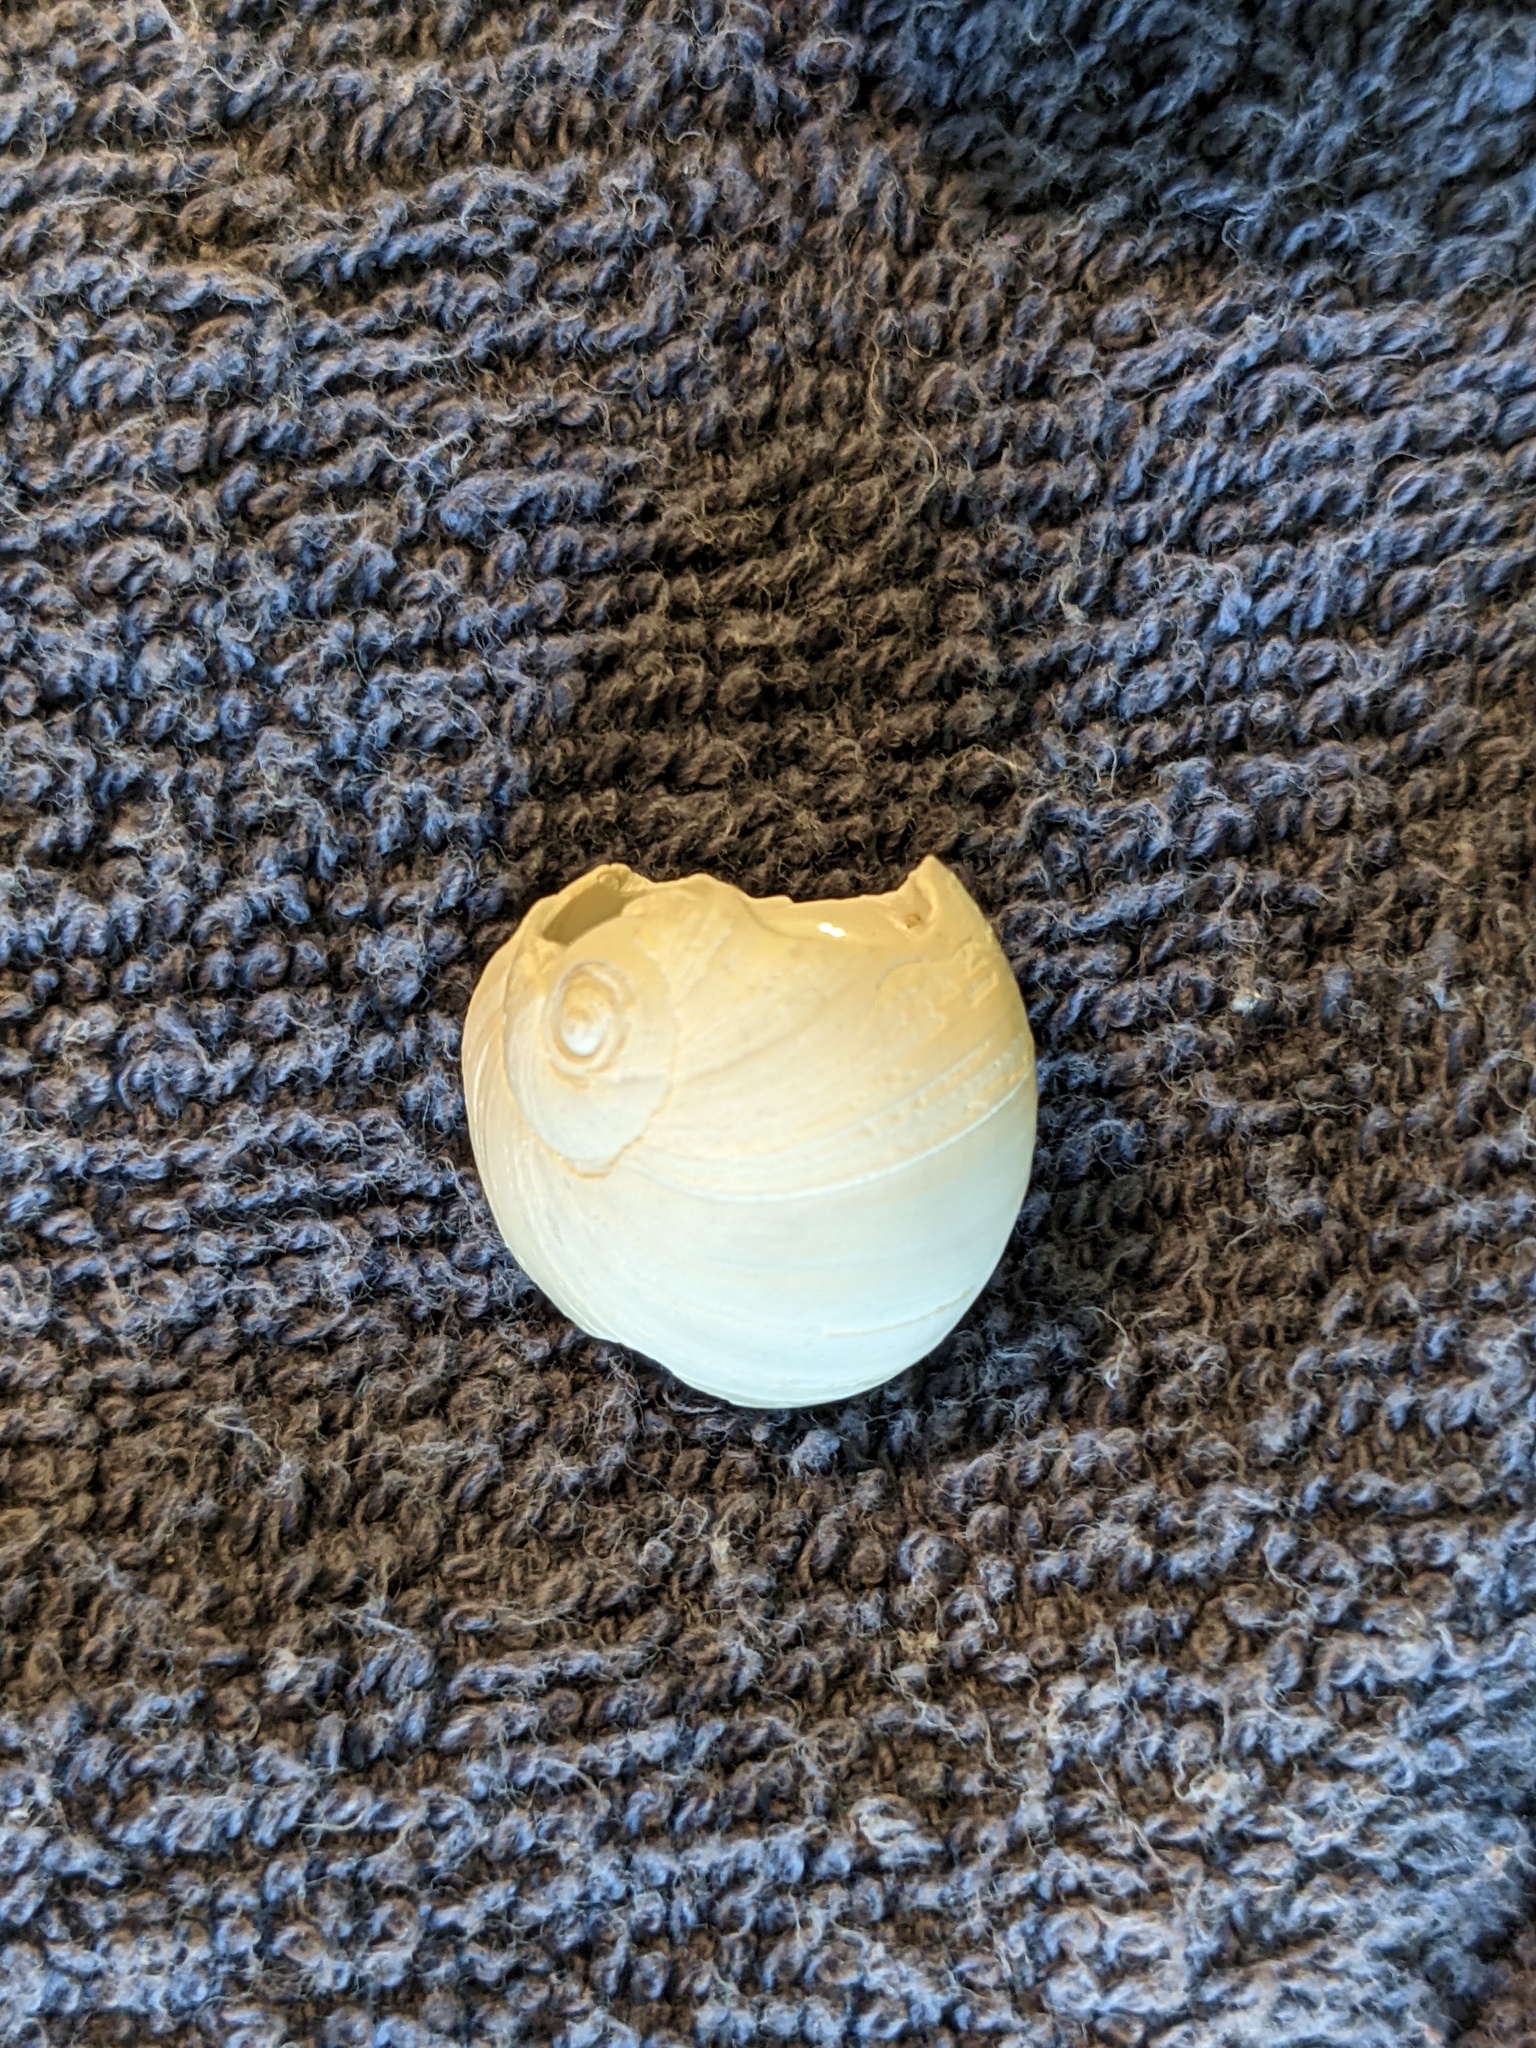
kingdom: Animalia
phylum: Mollusca
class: Gastropoda
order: Littorinimorpha
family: Naticidae
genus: Neverita
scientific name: Neverita duplicata
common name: Lobed moonsnail
